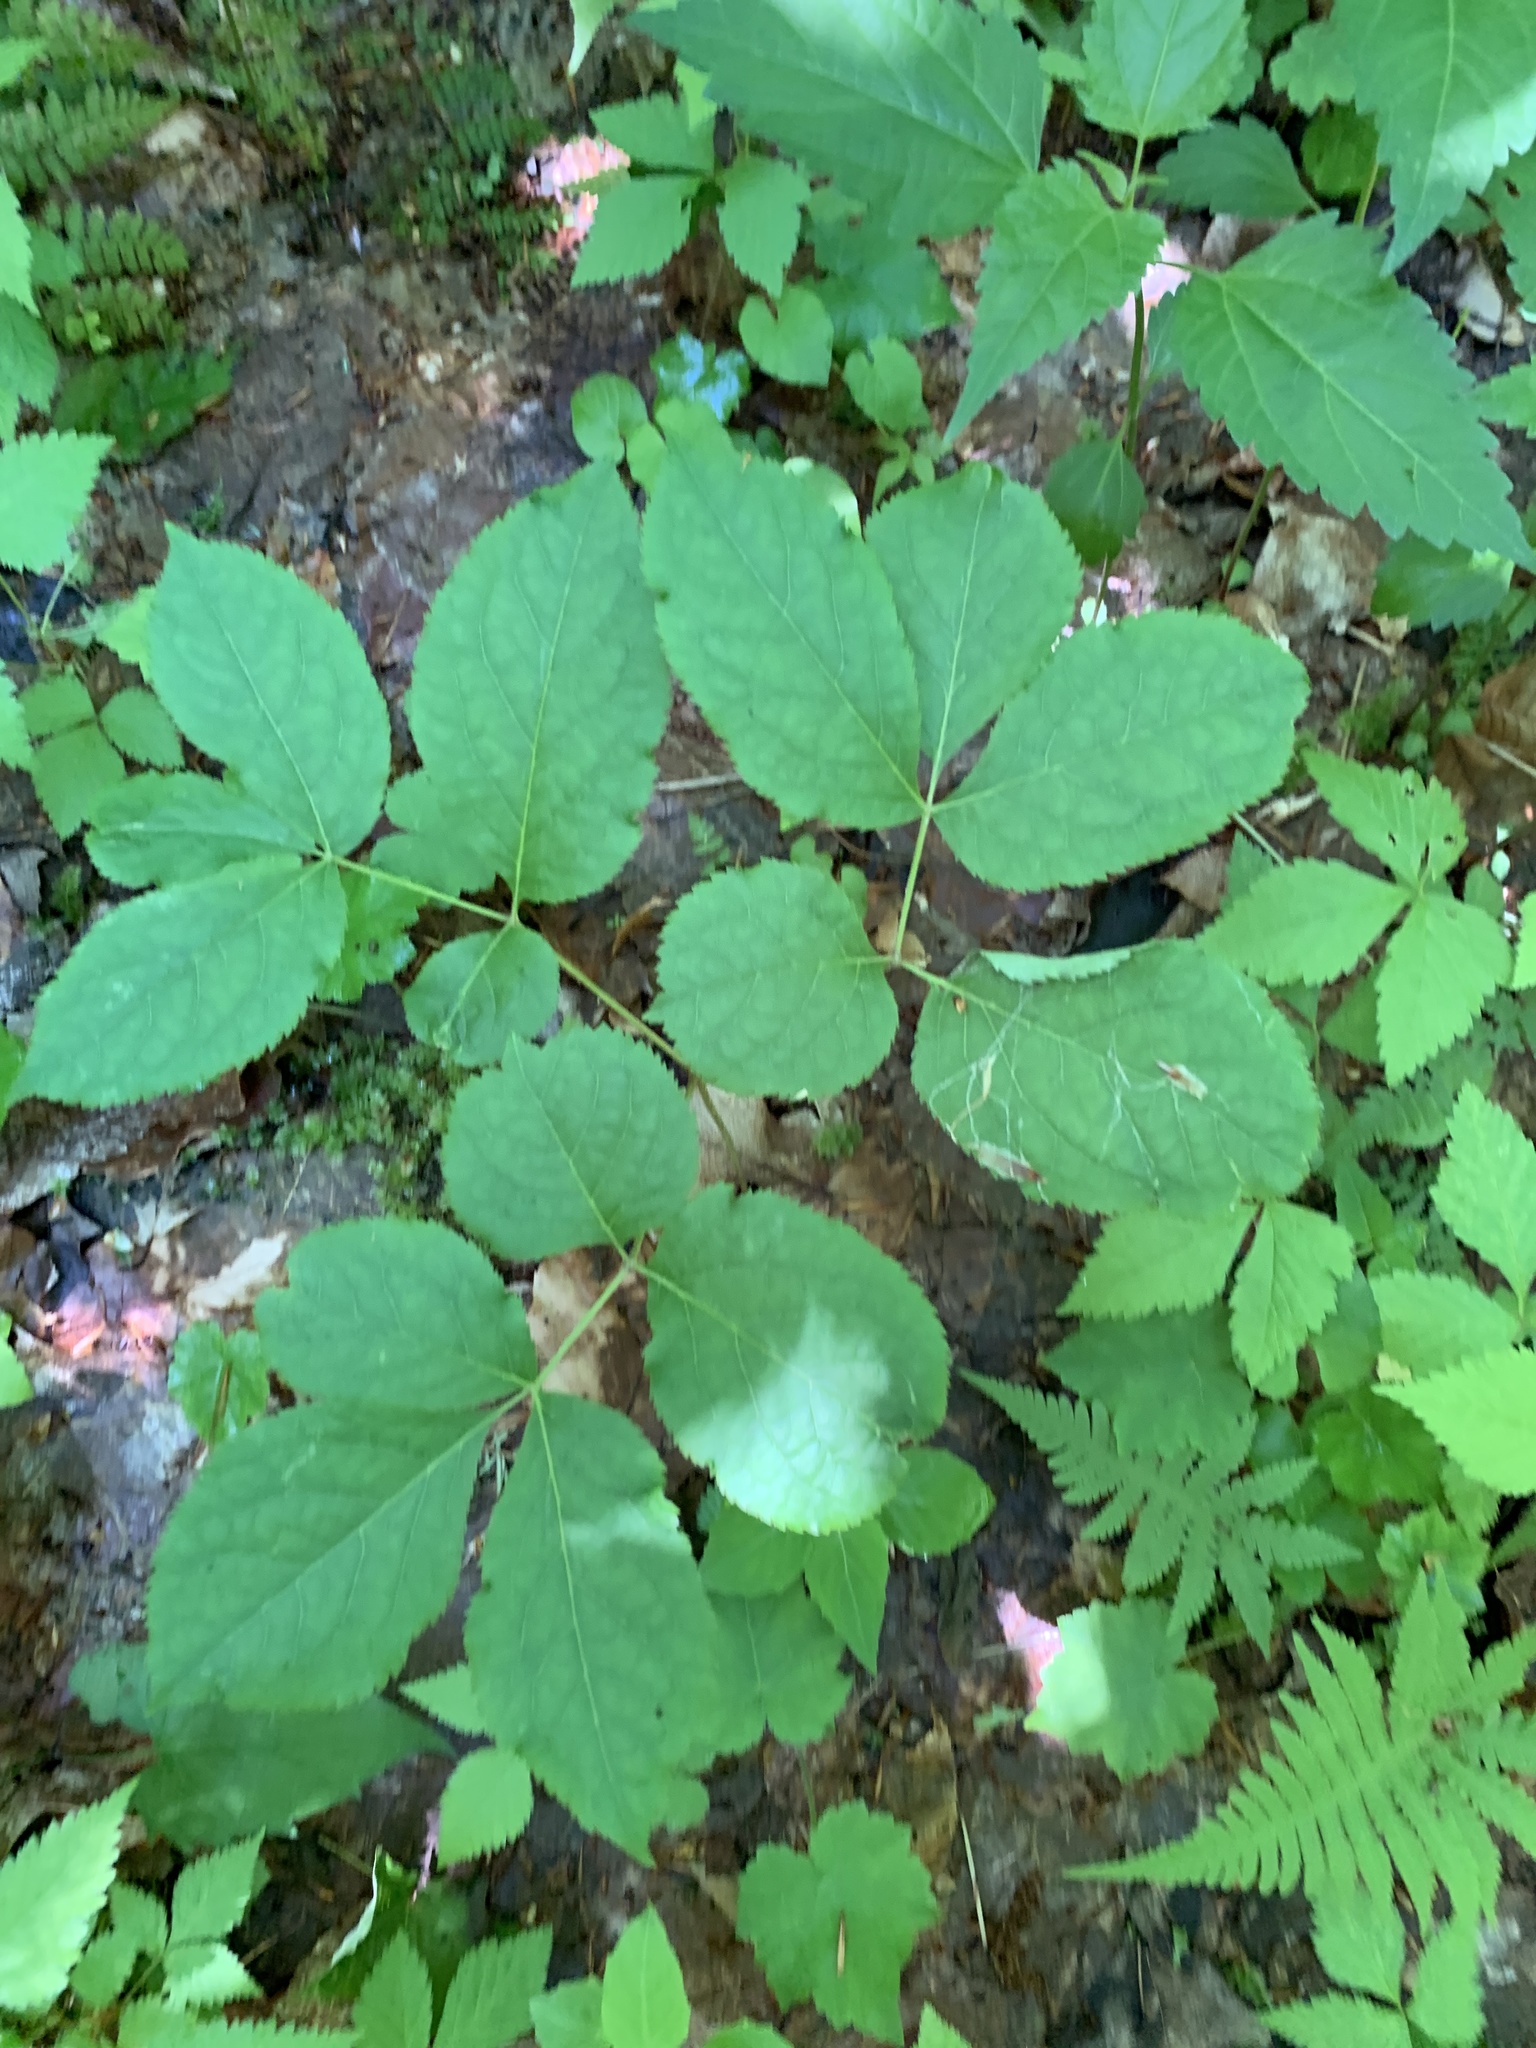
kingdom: Plantae
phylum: Tracheophyta
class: Magnoliopsida
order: Apiales
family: Araliaceae
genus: Aralia
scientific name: Aralia nudicaulis
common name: Wild sarsaparilla
